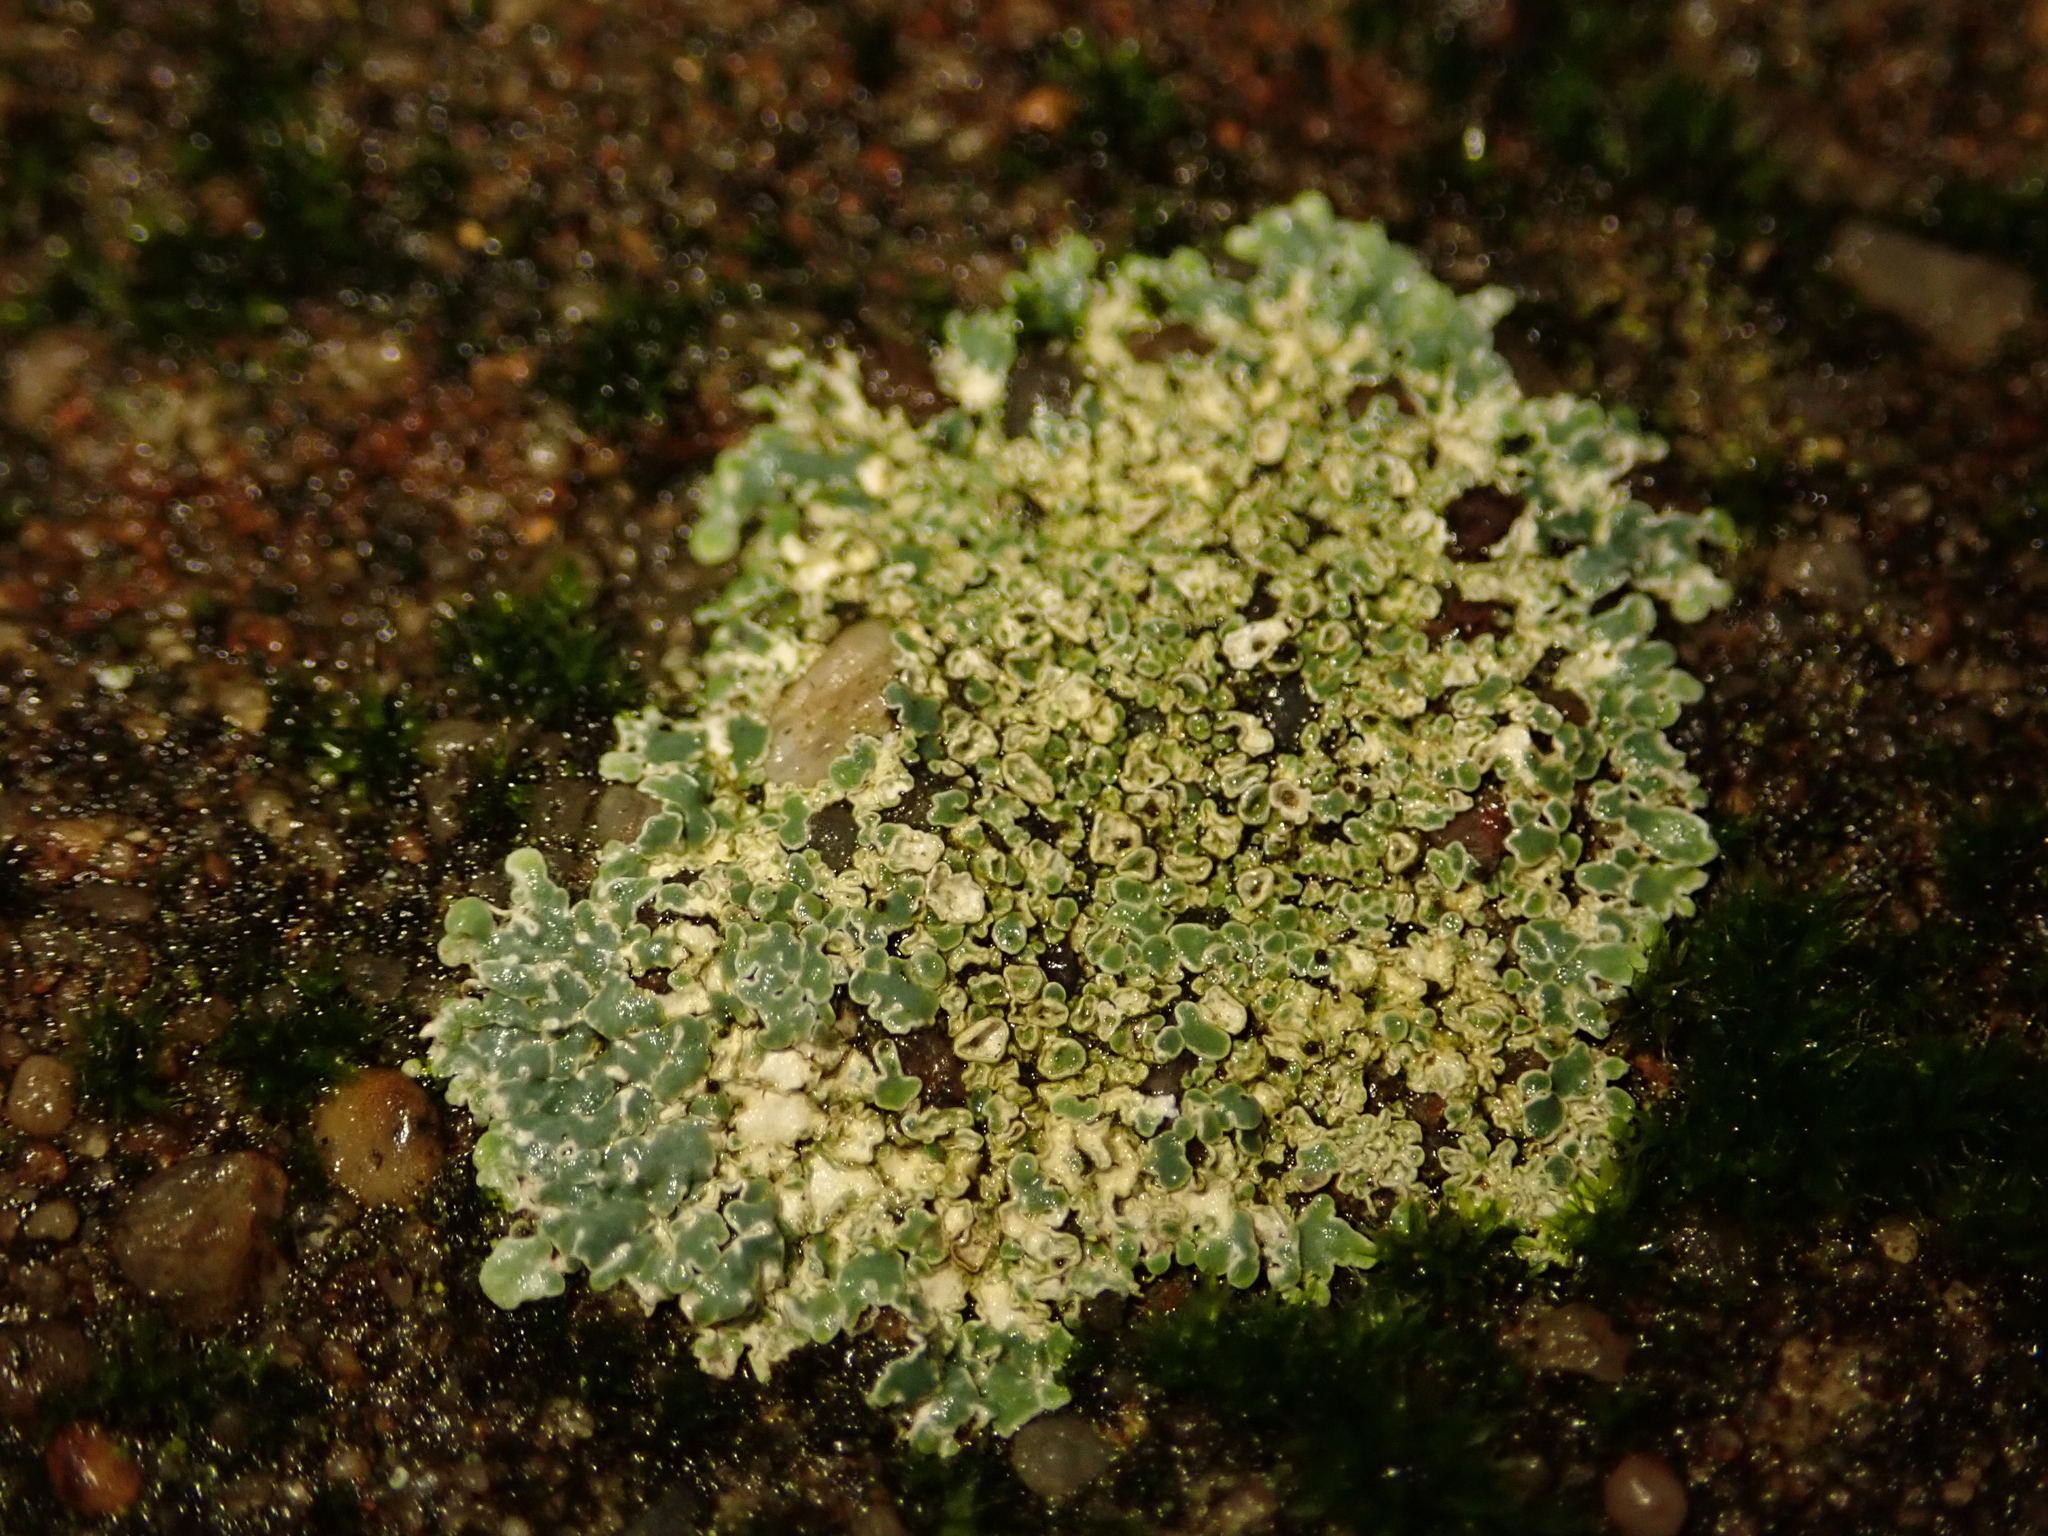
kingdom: Fungi
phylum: Ascomycota
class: Lecanoromycetes
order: Lecanorales
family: Lecanoraceae
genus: Protoparmeliopsis
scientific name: Protoparmeliopsis muralis
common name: Stonewall rim lichen
